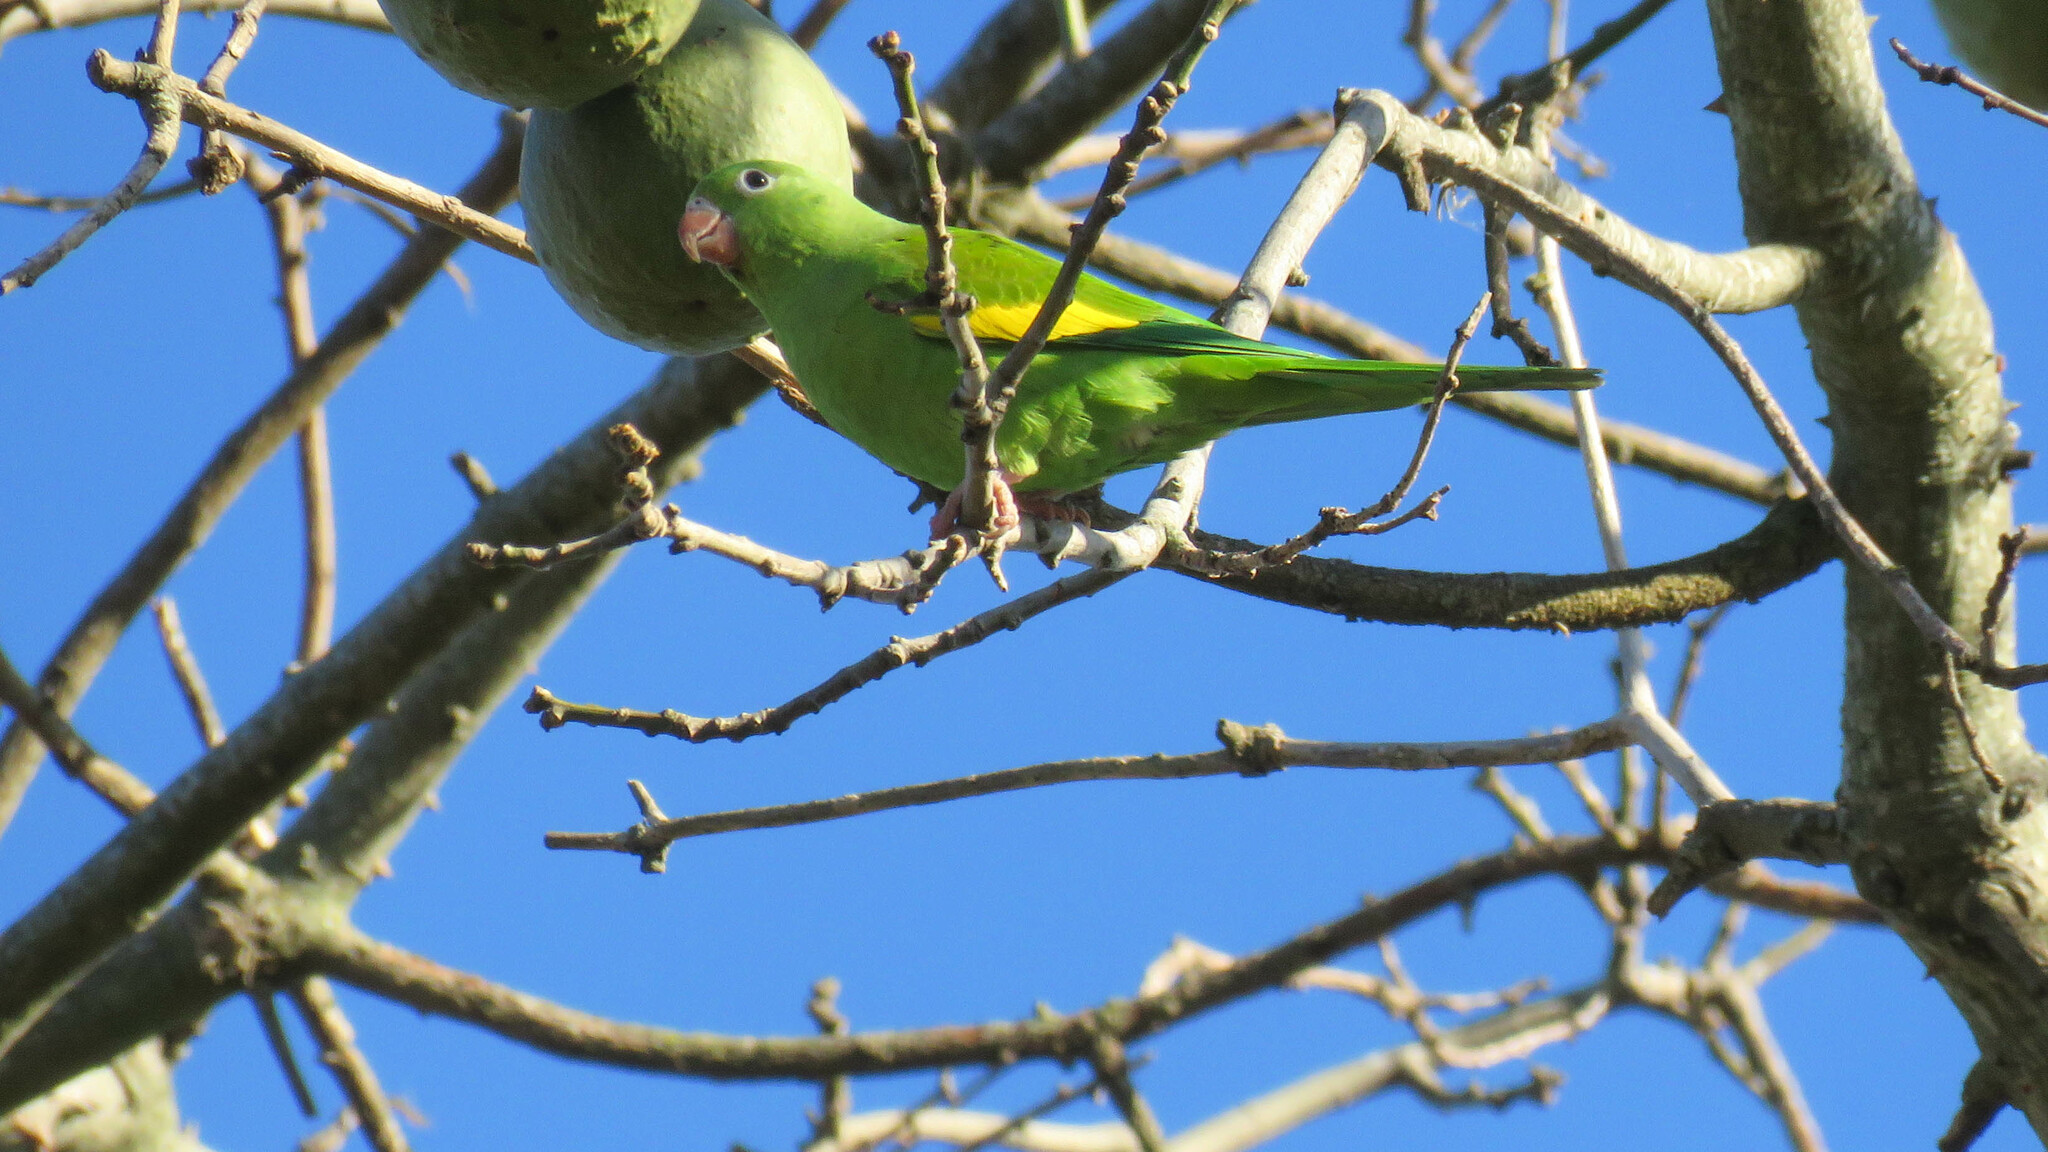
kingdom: Animalia
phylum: Chordata
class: Aves
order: Psittaciformes
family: Psittacidae
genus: Brotogeris
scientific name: Brotogeris chiriri
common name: Yellow-chevroned parakeet
